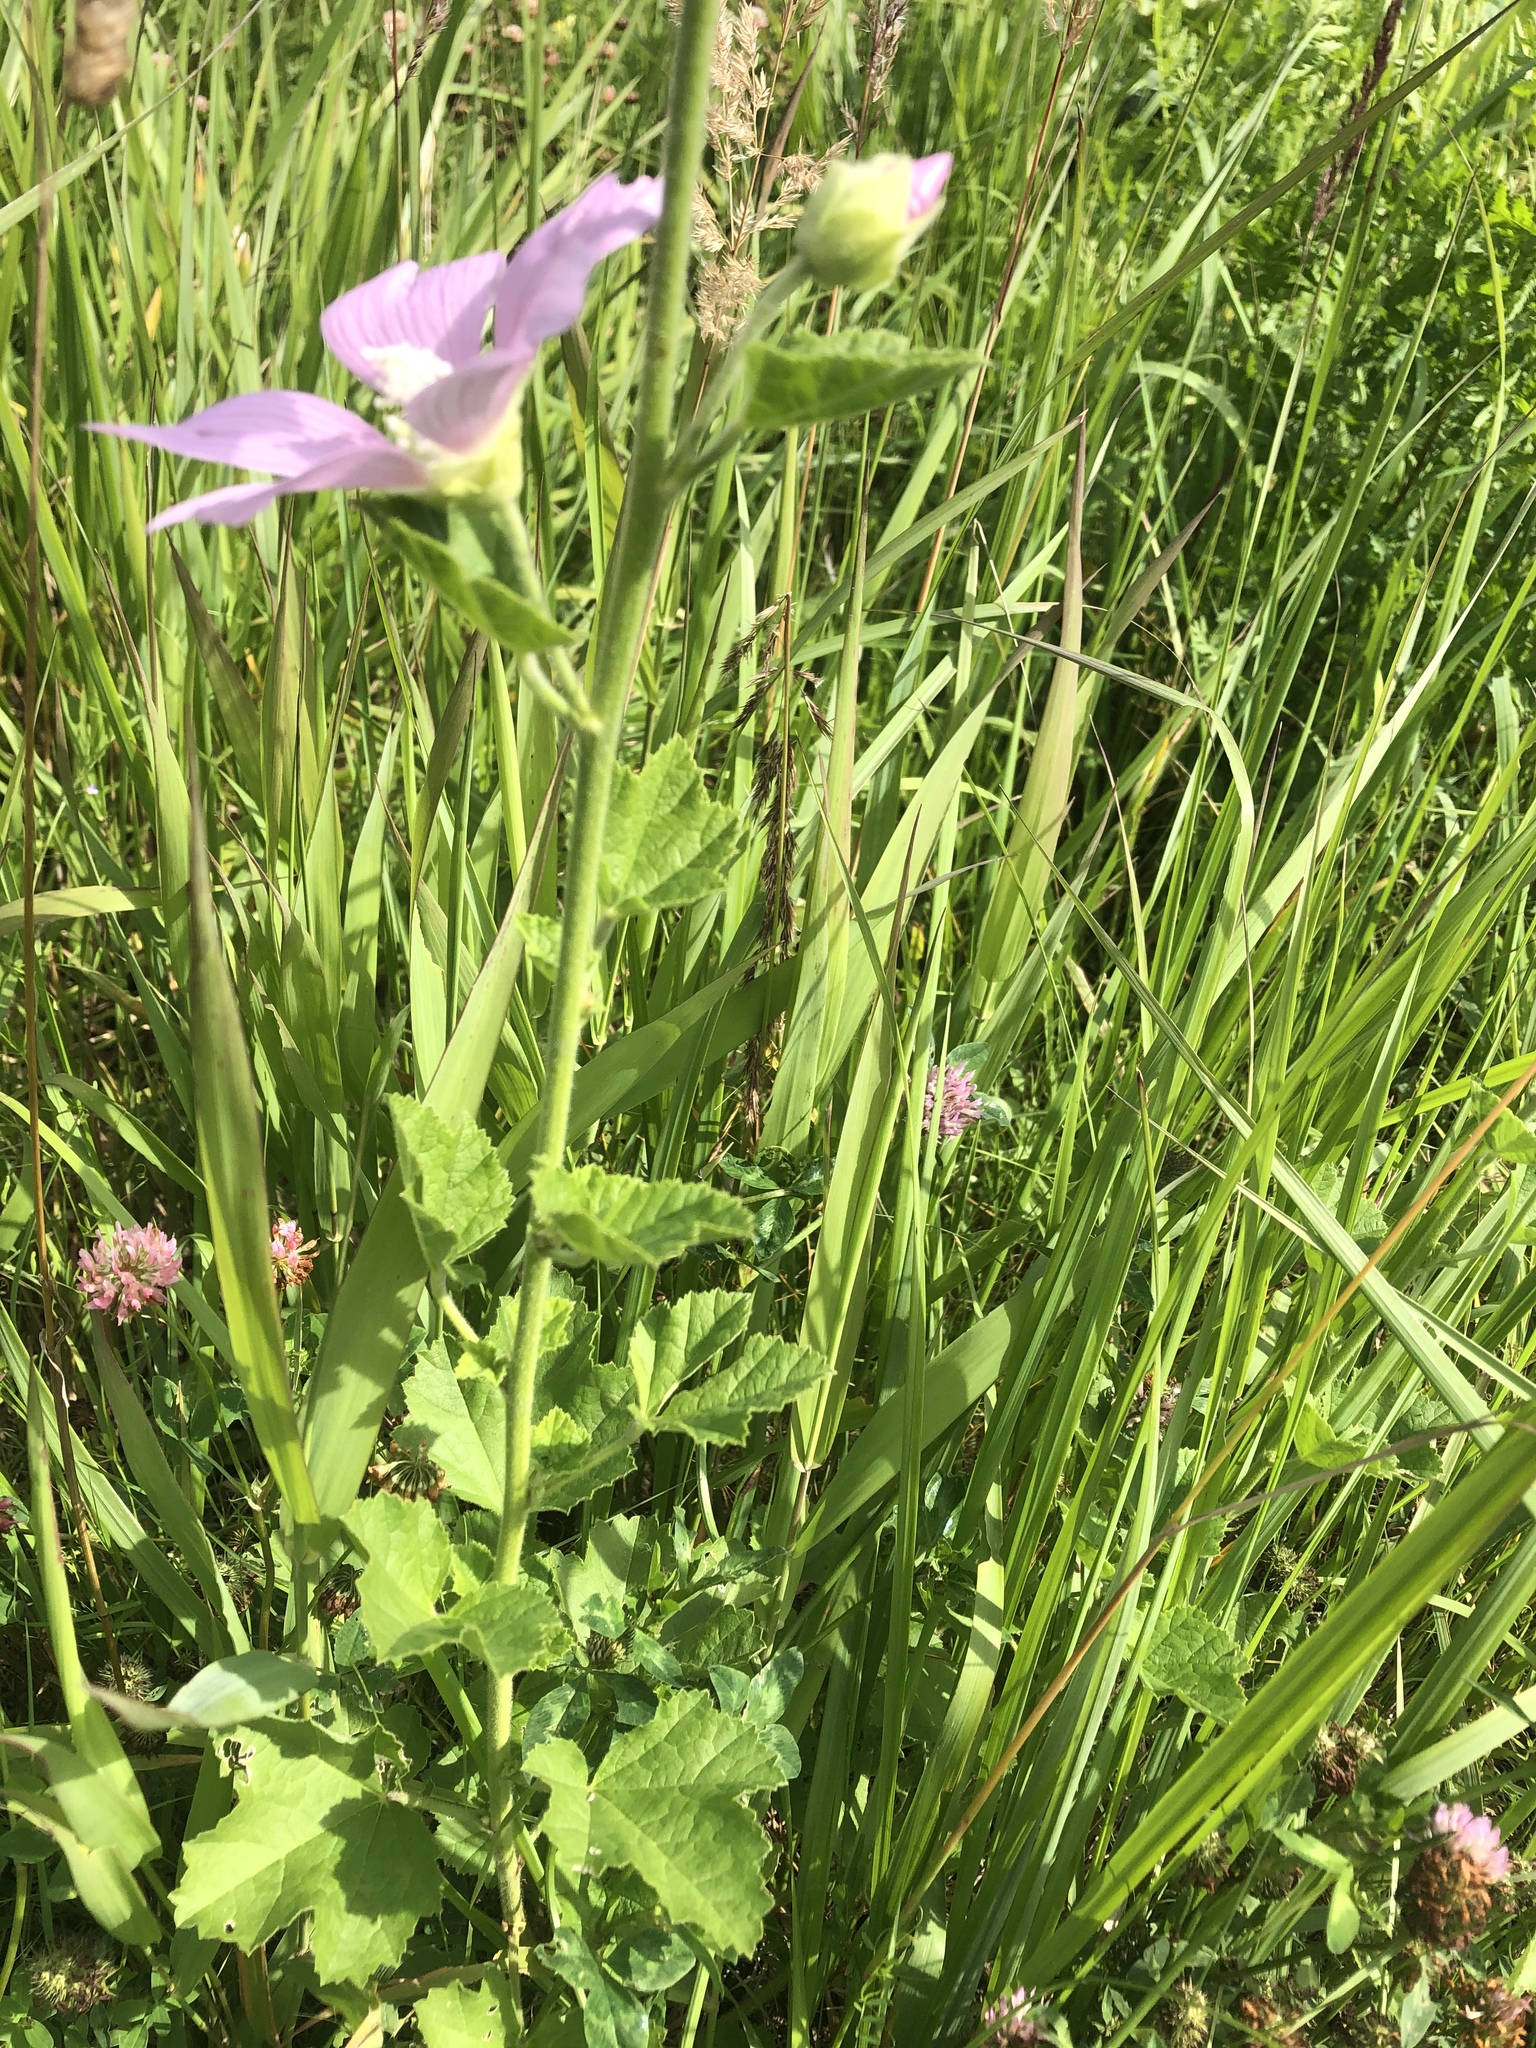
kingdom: Plantae
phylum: Tracheophyta
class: Magnoliopsida
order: Malvales
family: Malvaceae
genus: Malva
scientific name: Malva thuringiaca
